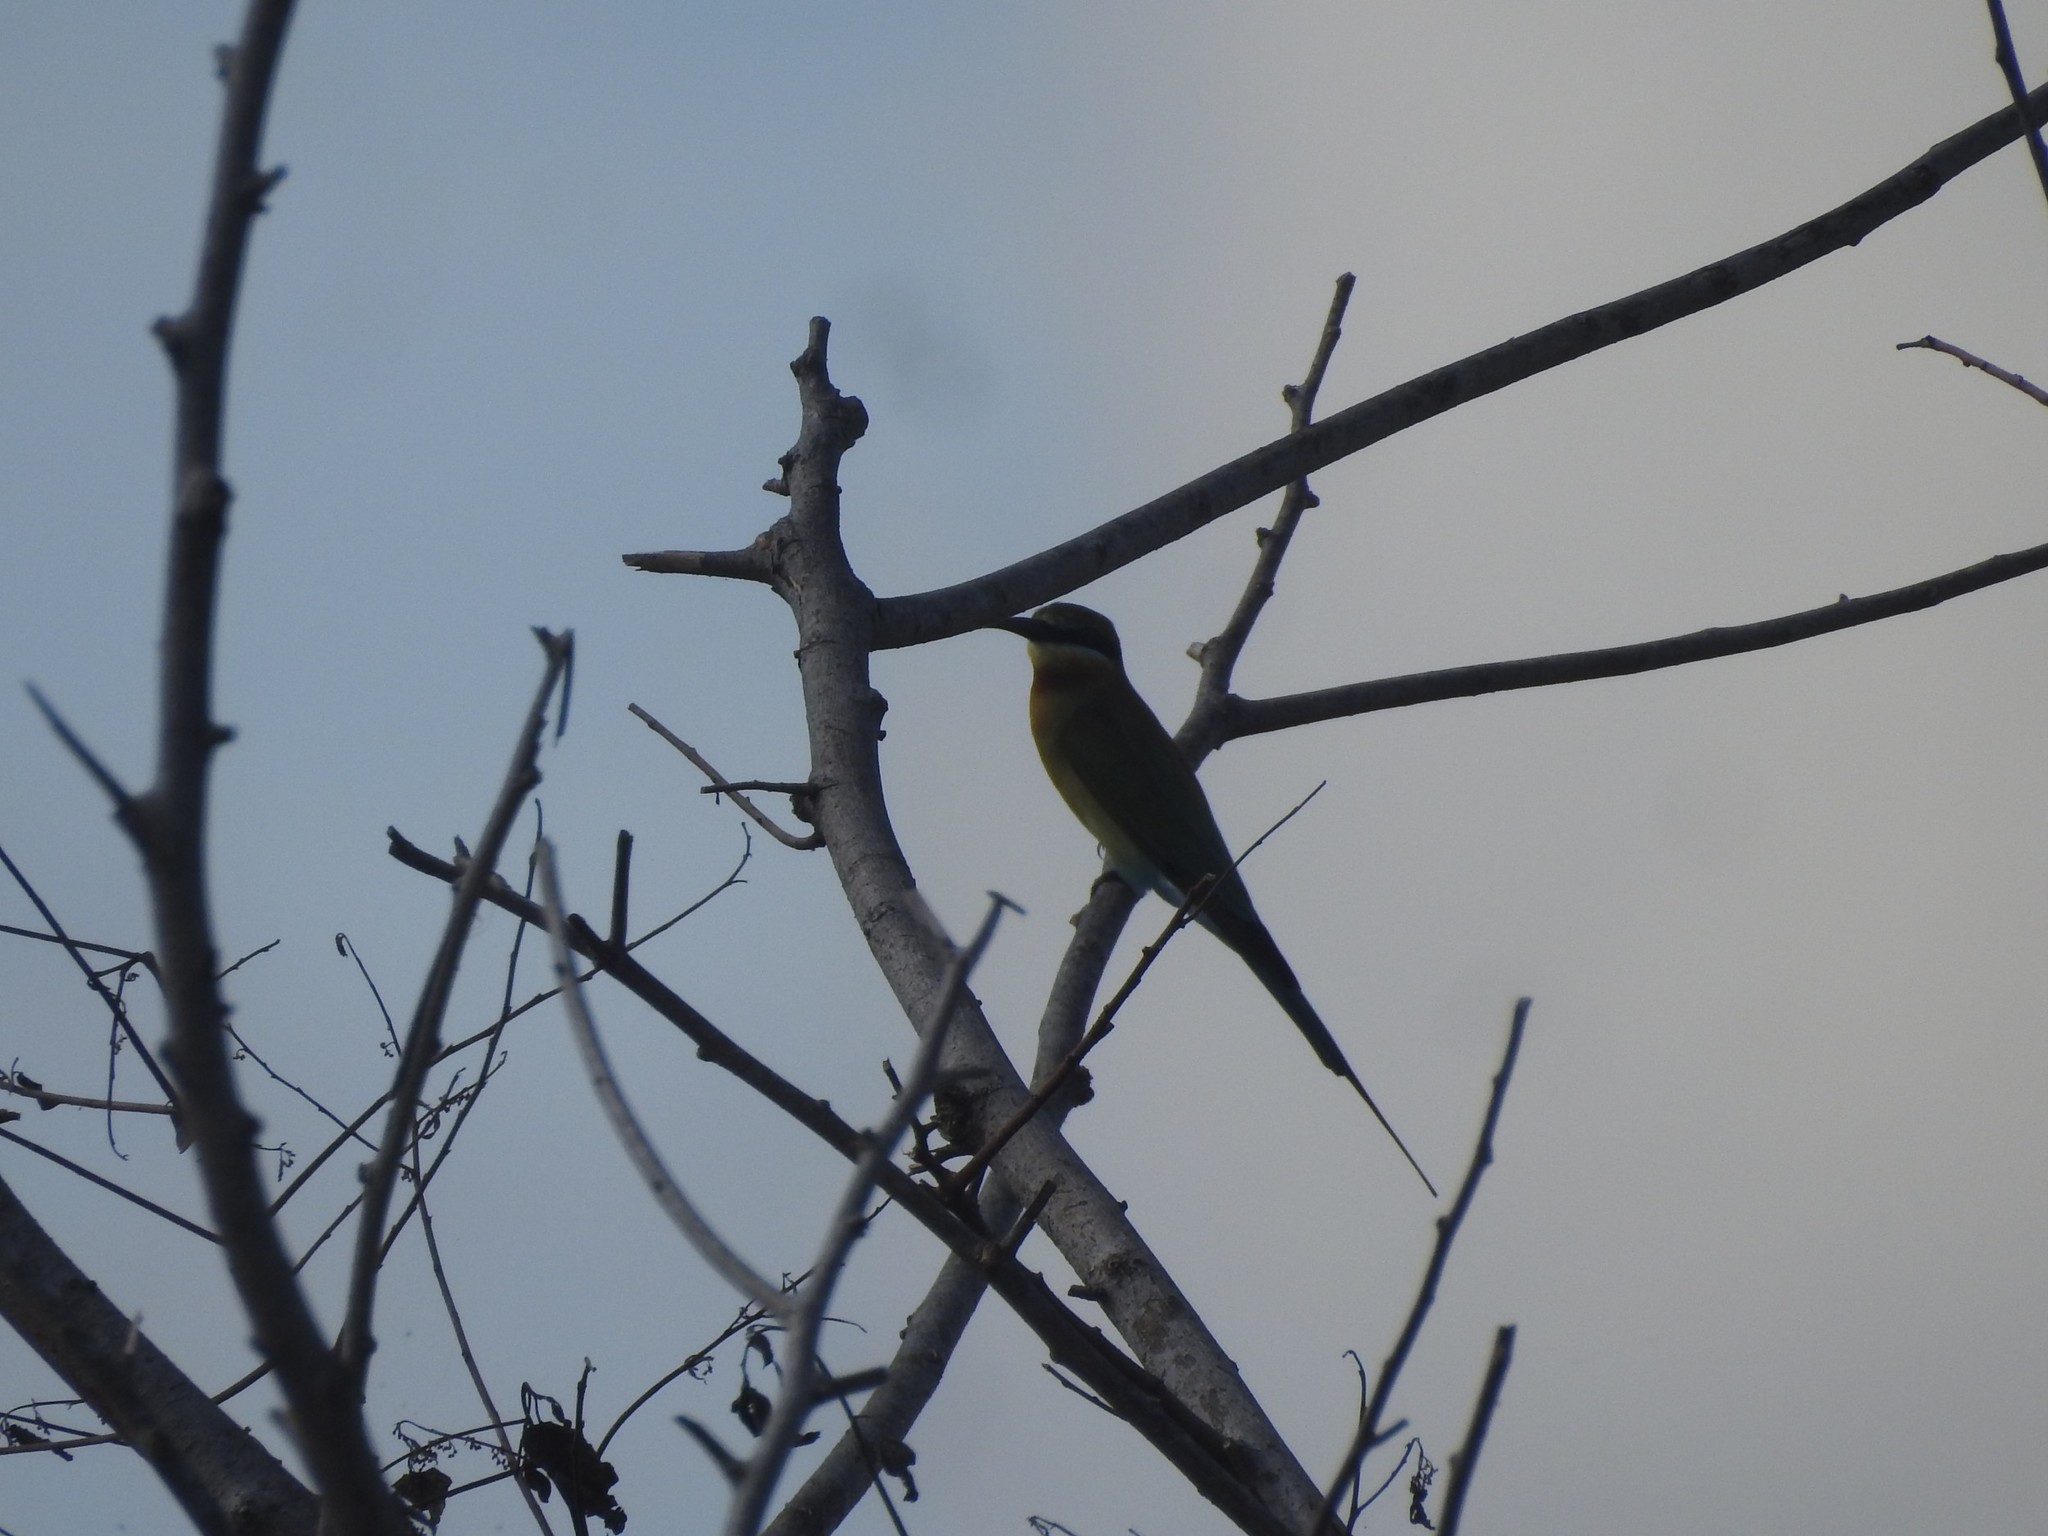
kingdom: Animalia
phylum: Chordata
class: Aves
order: Coraciiformes
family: Meropidae
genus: Merops
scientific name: Merops philippinus
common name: Blue-tailed bee-eater
